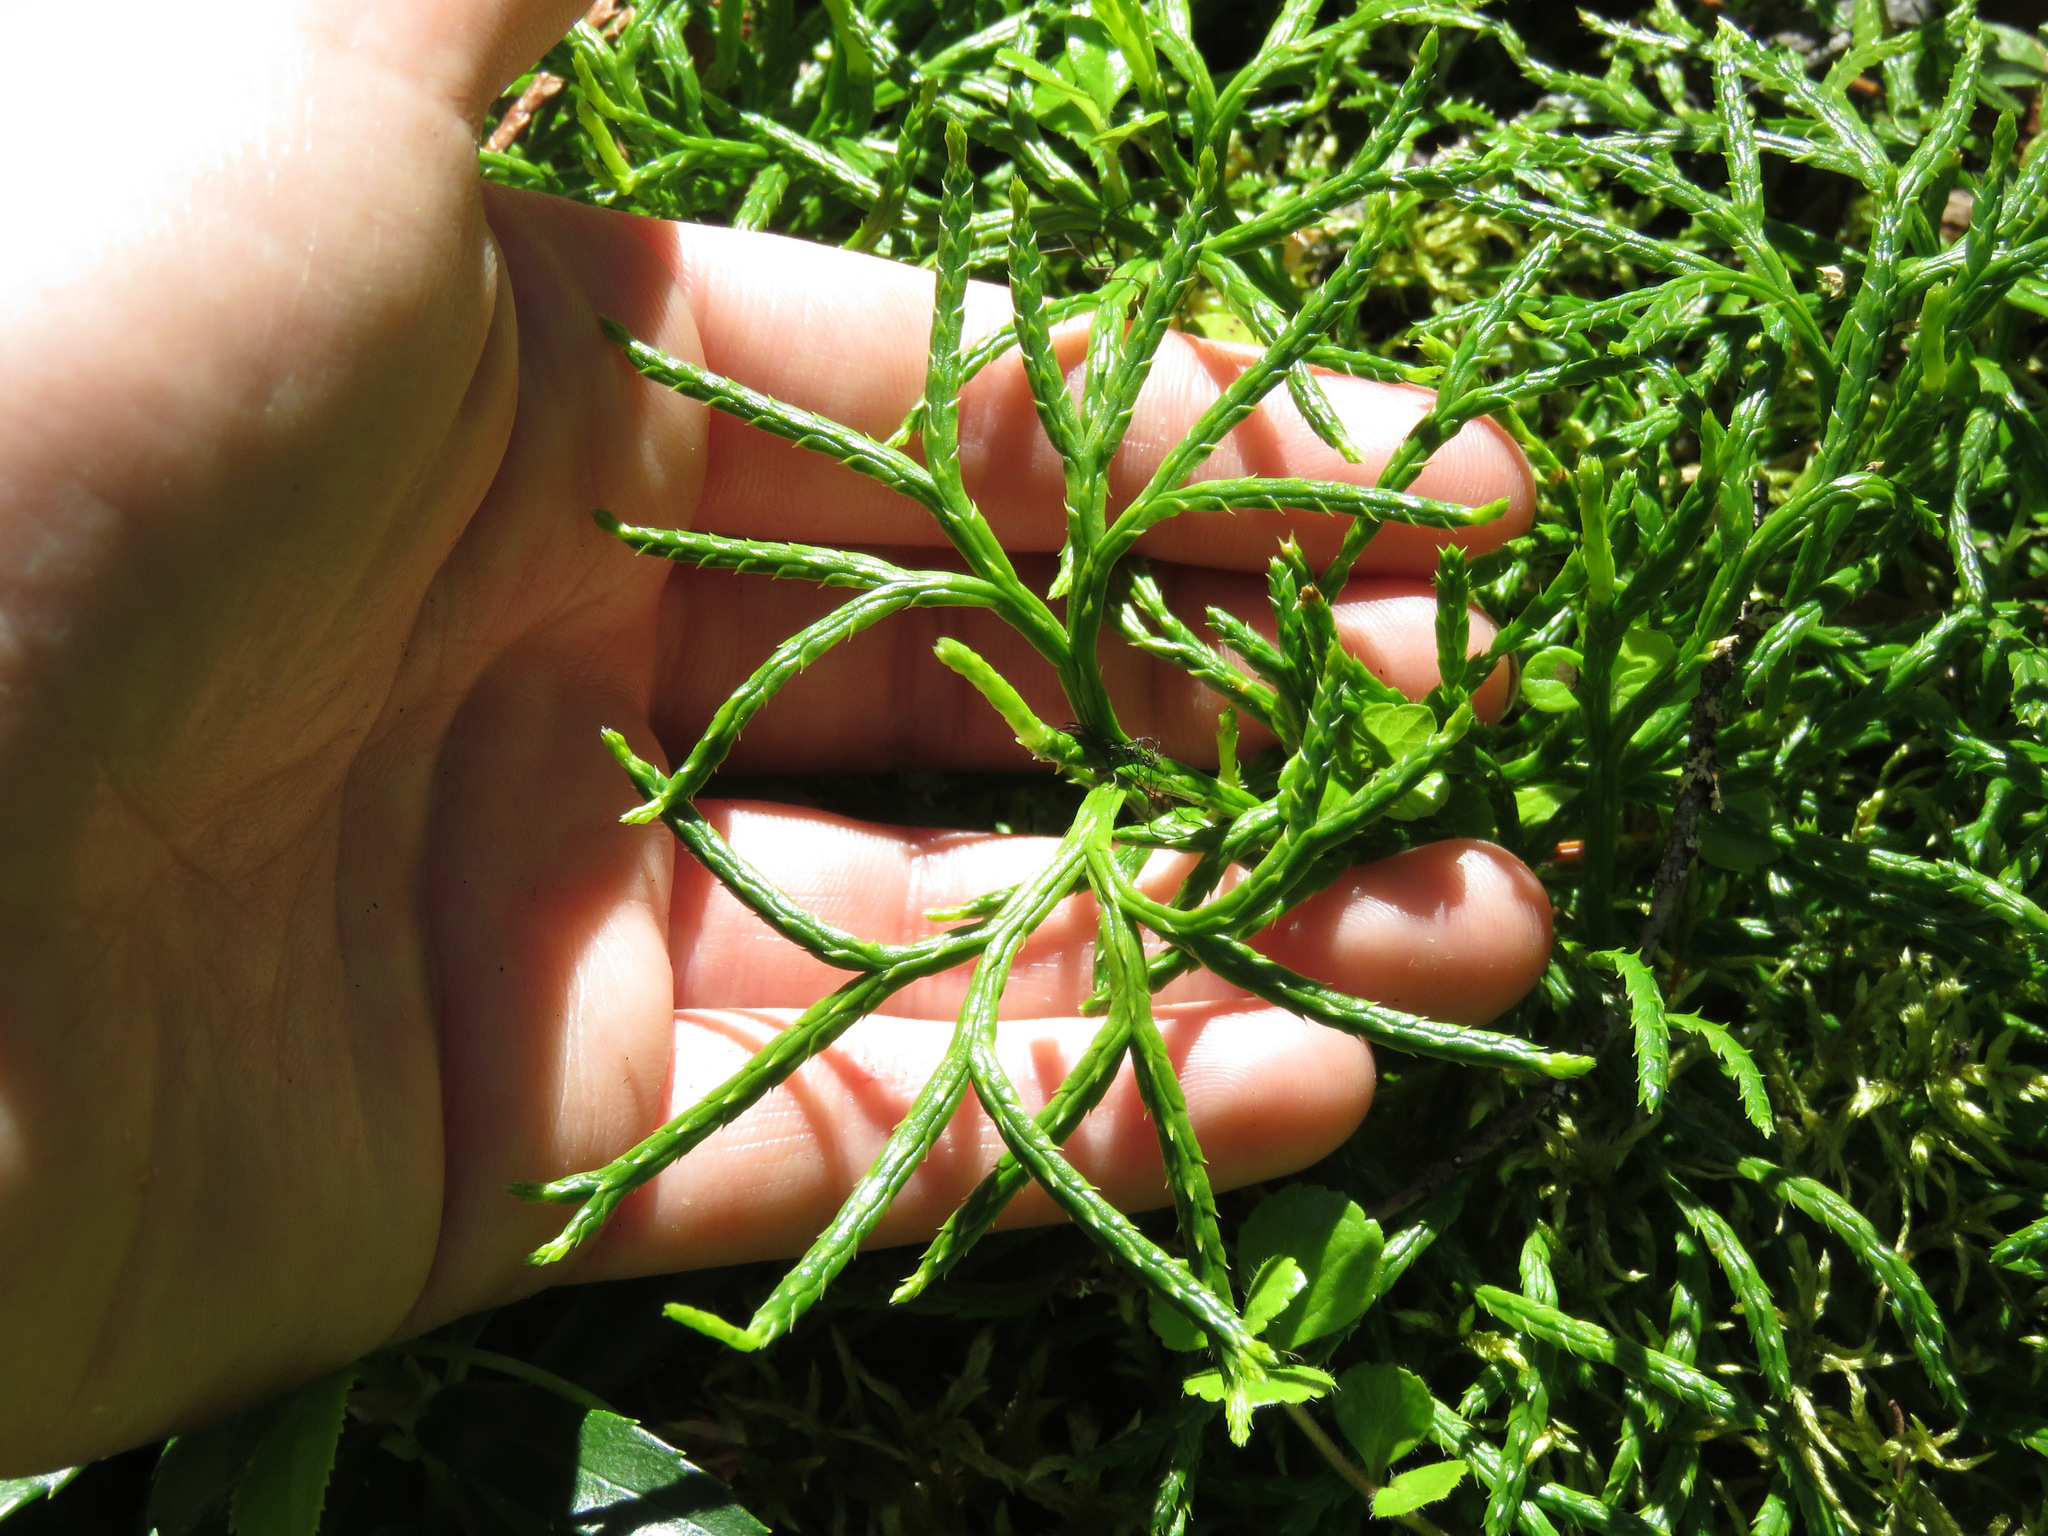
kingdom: Plantae
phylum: Tracheophyta
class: Lycopodiopsida
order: Lycopodiales
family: Lycopodiaceae
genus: Diphasiastrum
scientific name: Diphasiastrum complanatum
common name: Northern running-pine
